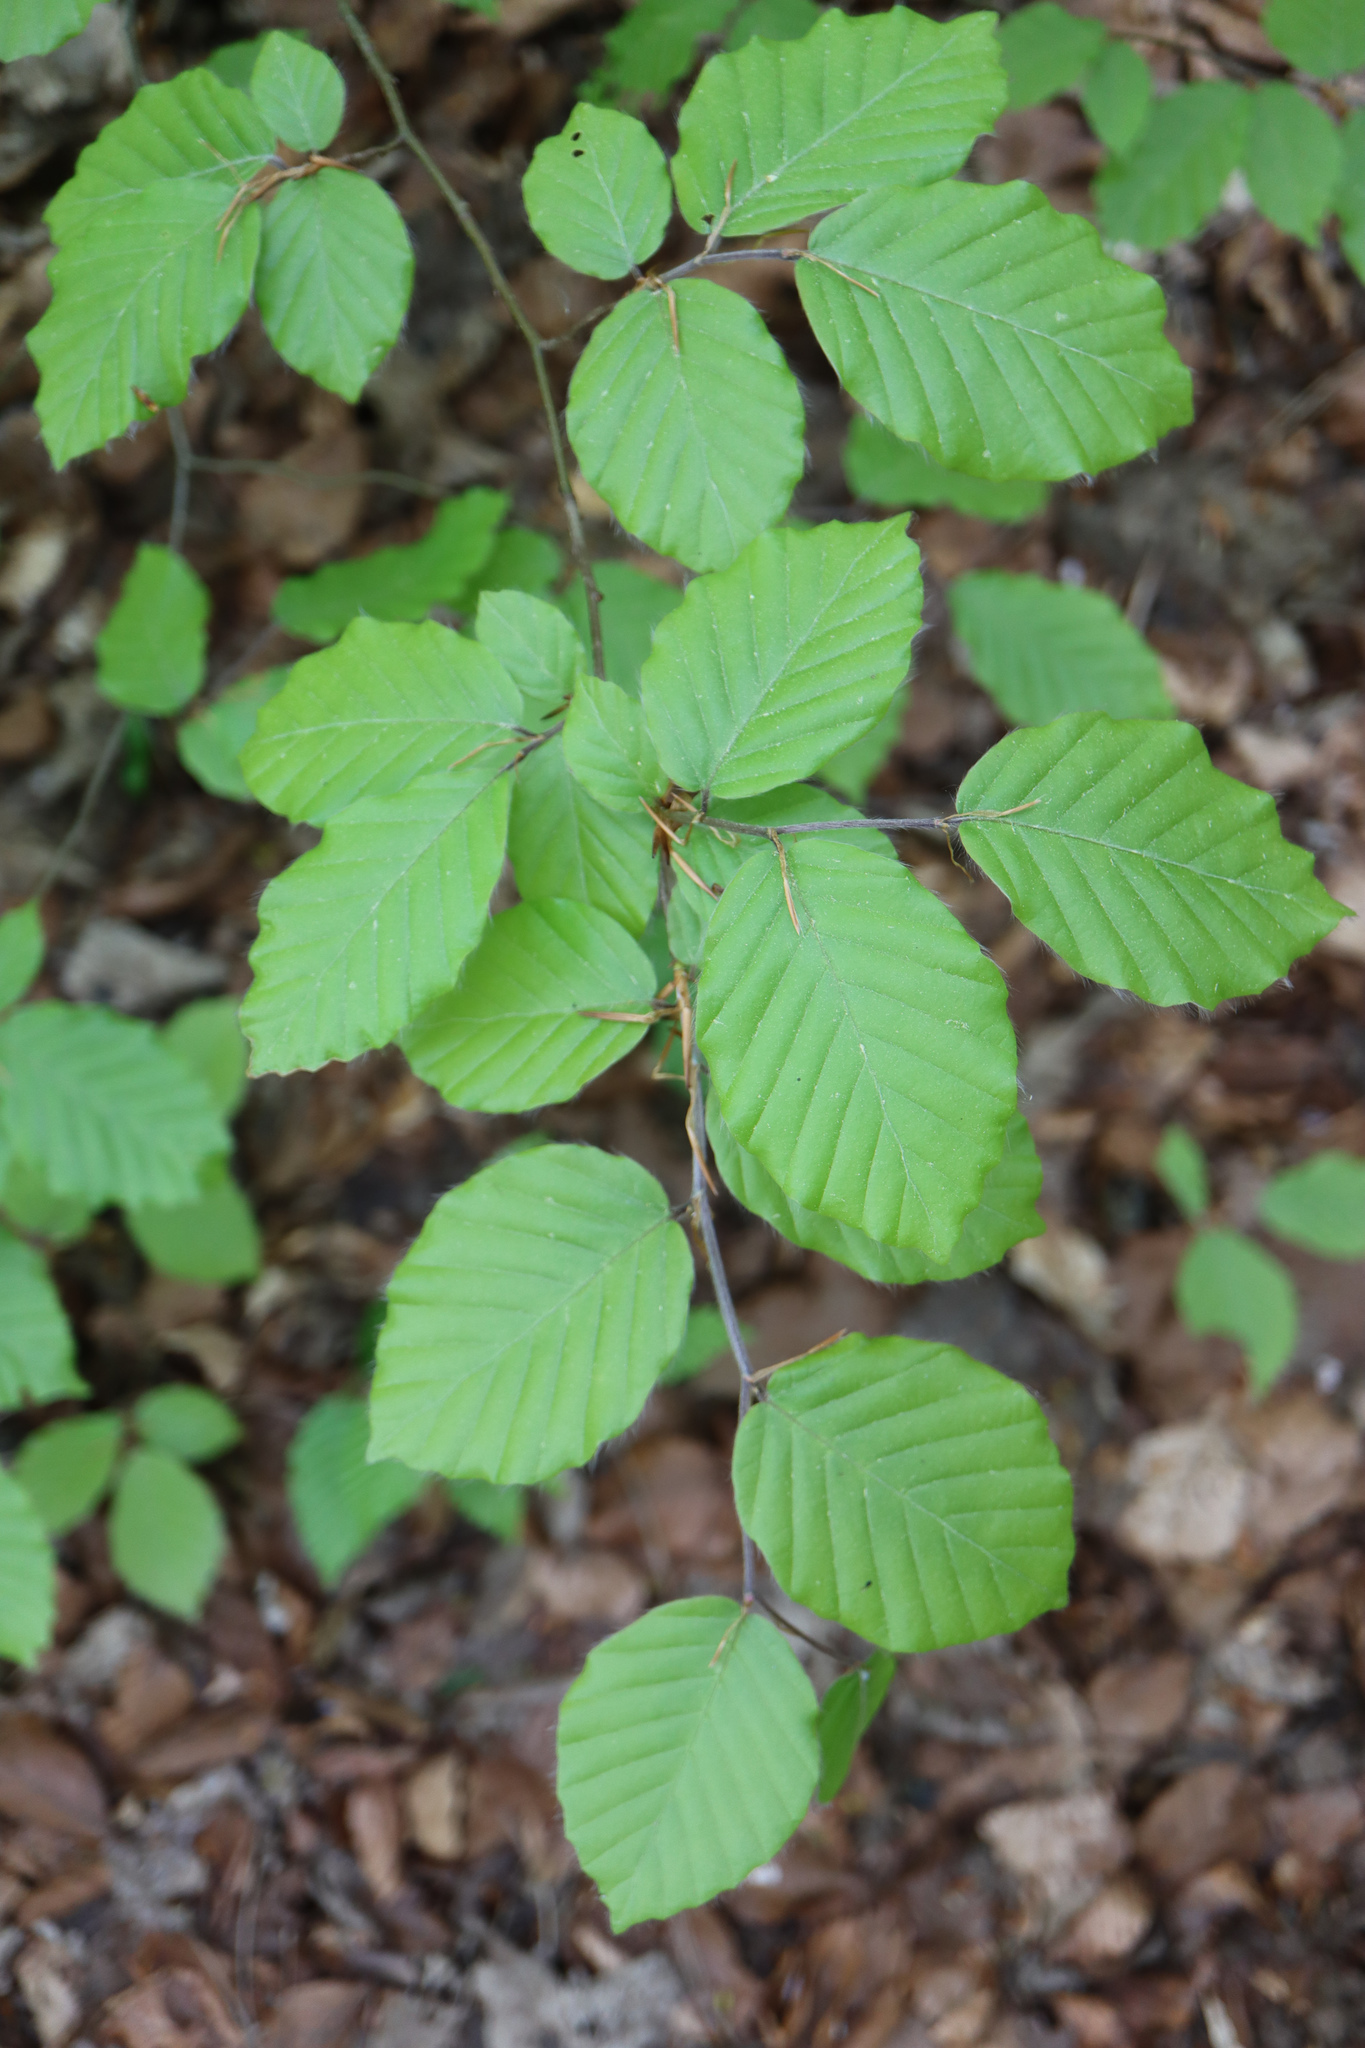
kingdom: Plantae
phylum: Tracheophyta
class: Magnoliopsida
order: Fagales
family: Fagaceae
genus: Fagus
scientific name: Fagus sylvatica
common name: Beech
